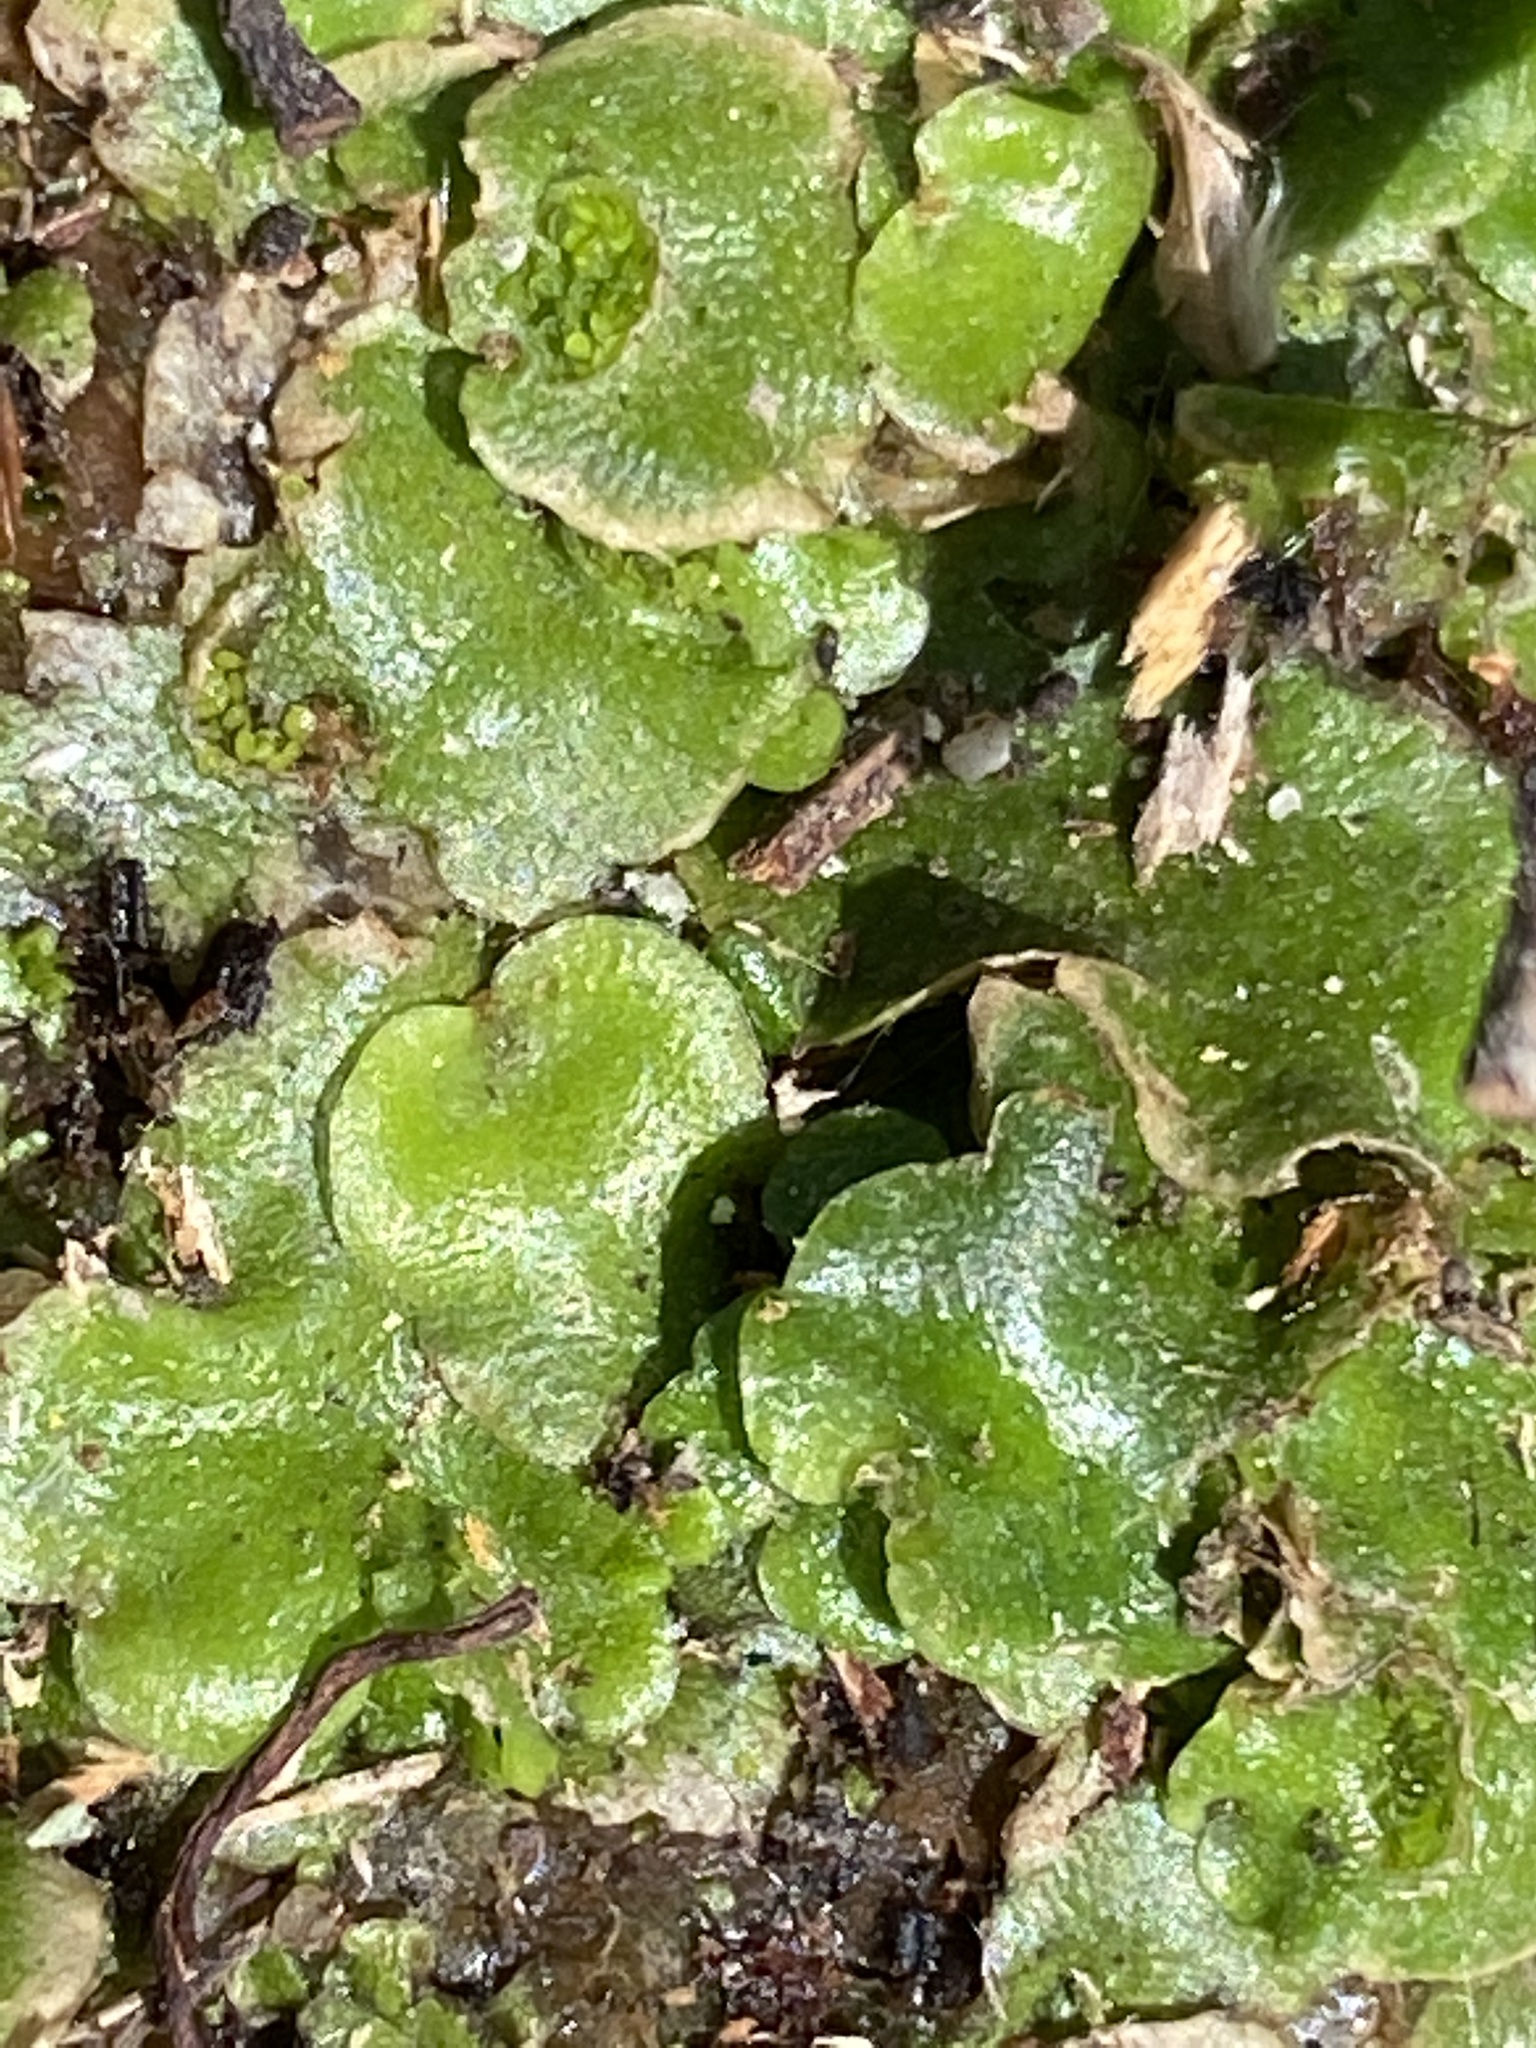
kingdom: Plantae
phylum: Marchantiophyta
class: Marchantiopsida
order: Lunulariales
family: Lunulariaceae
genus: Lunularia
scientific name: Lunularia cruciata
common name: Crescent-cup liverwort
